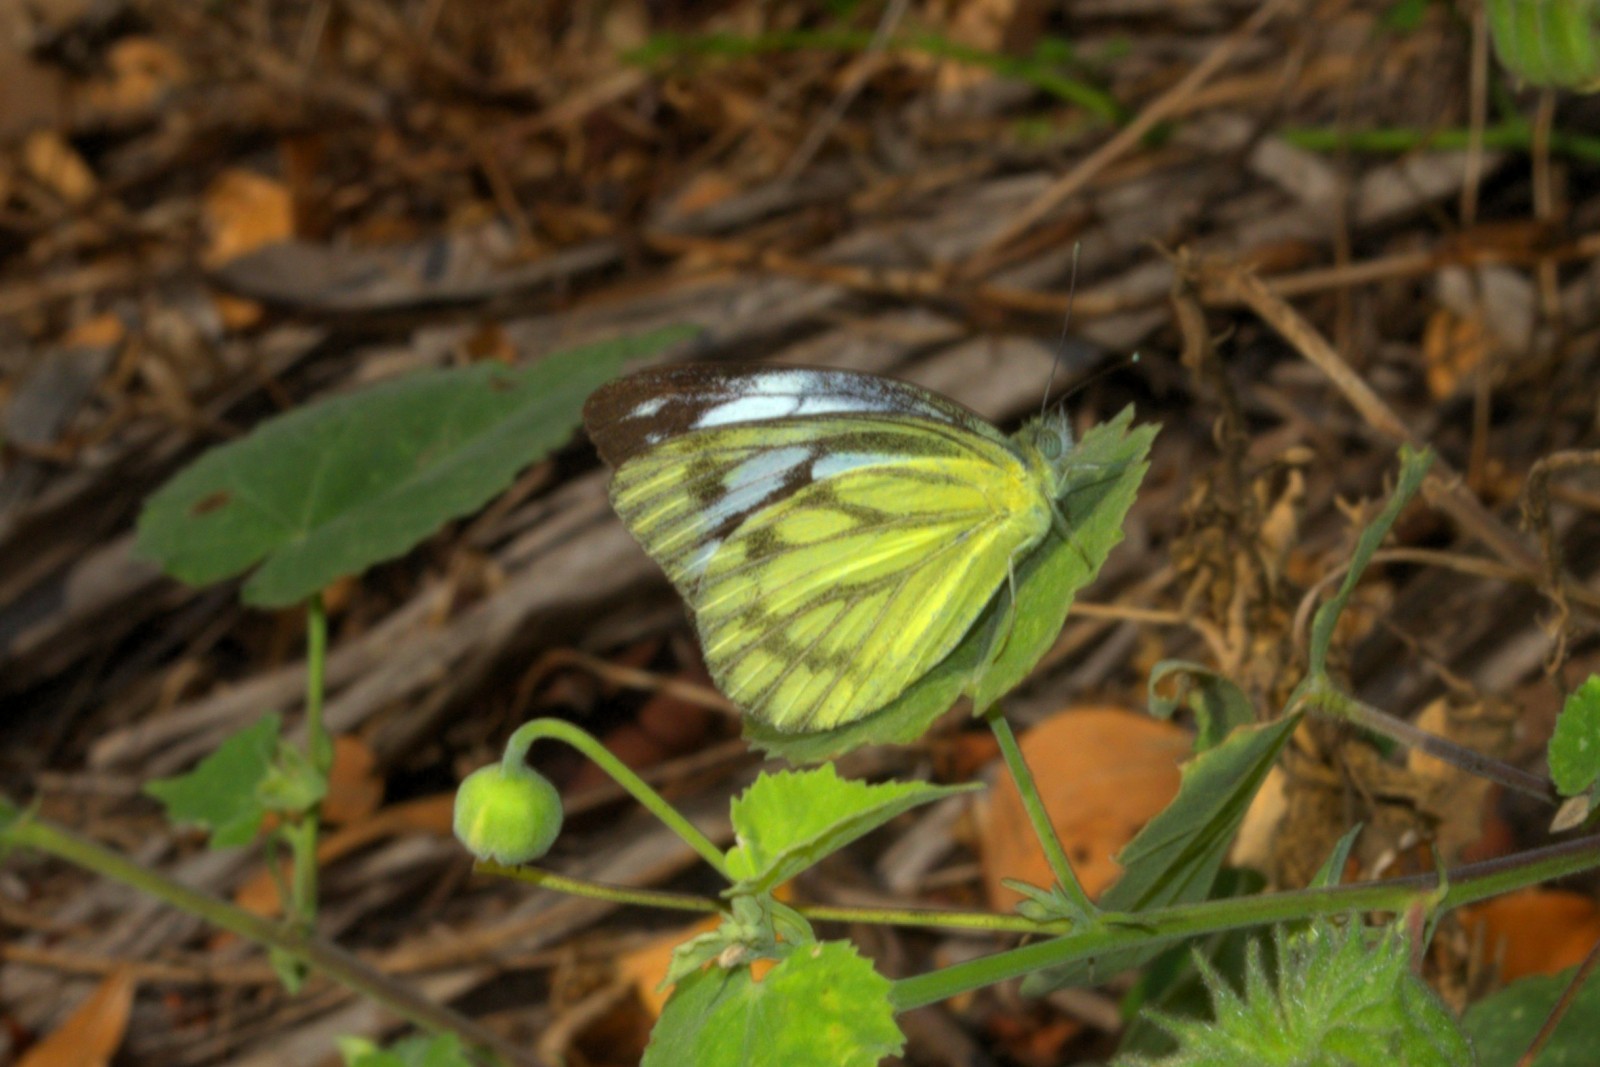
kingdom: Animalia
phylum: Arthropoda
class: Insecta
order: Lepidoptera
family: Pieridae
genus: Cepora
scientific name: Cepora nerissa
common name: Common gull
